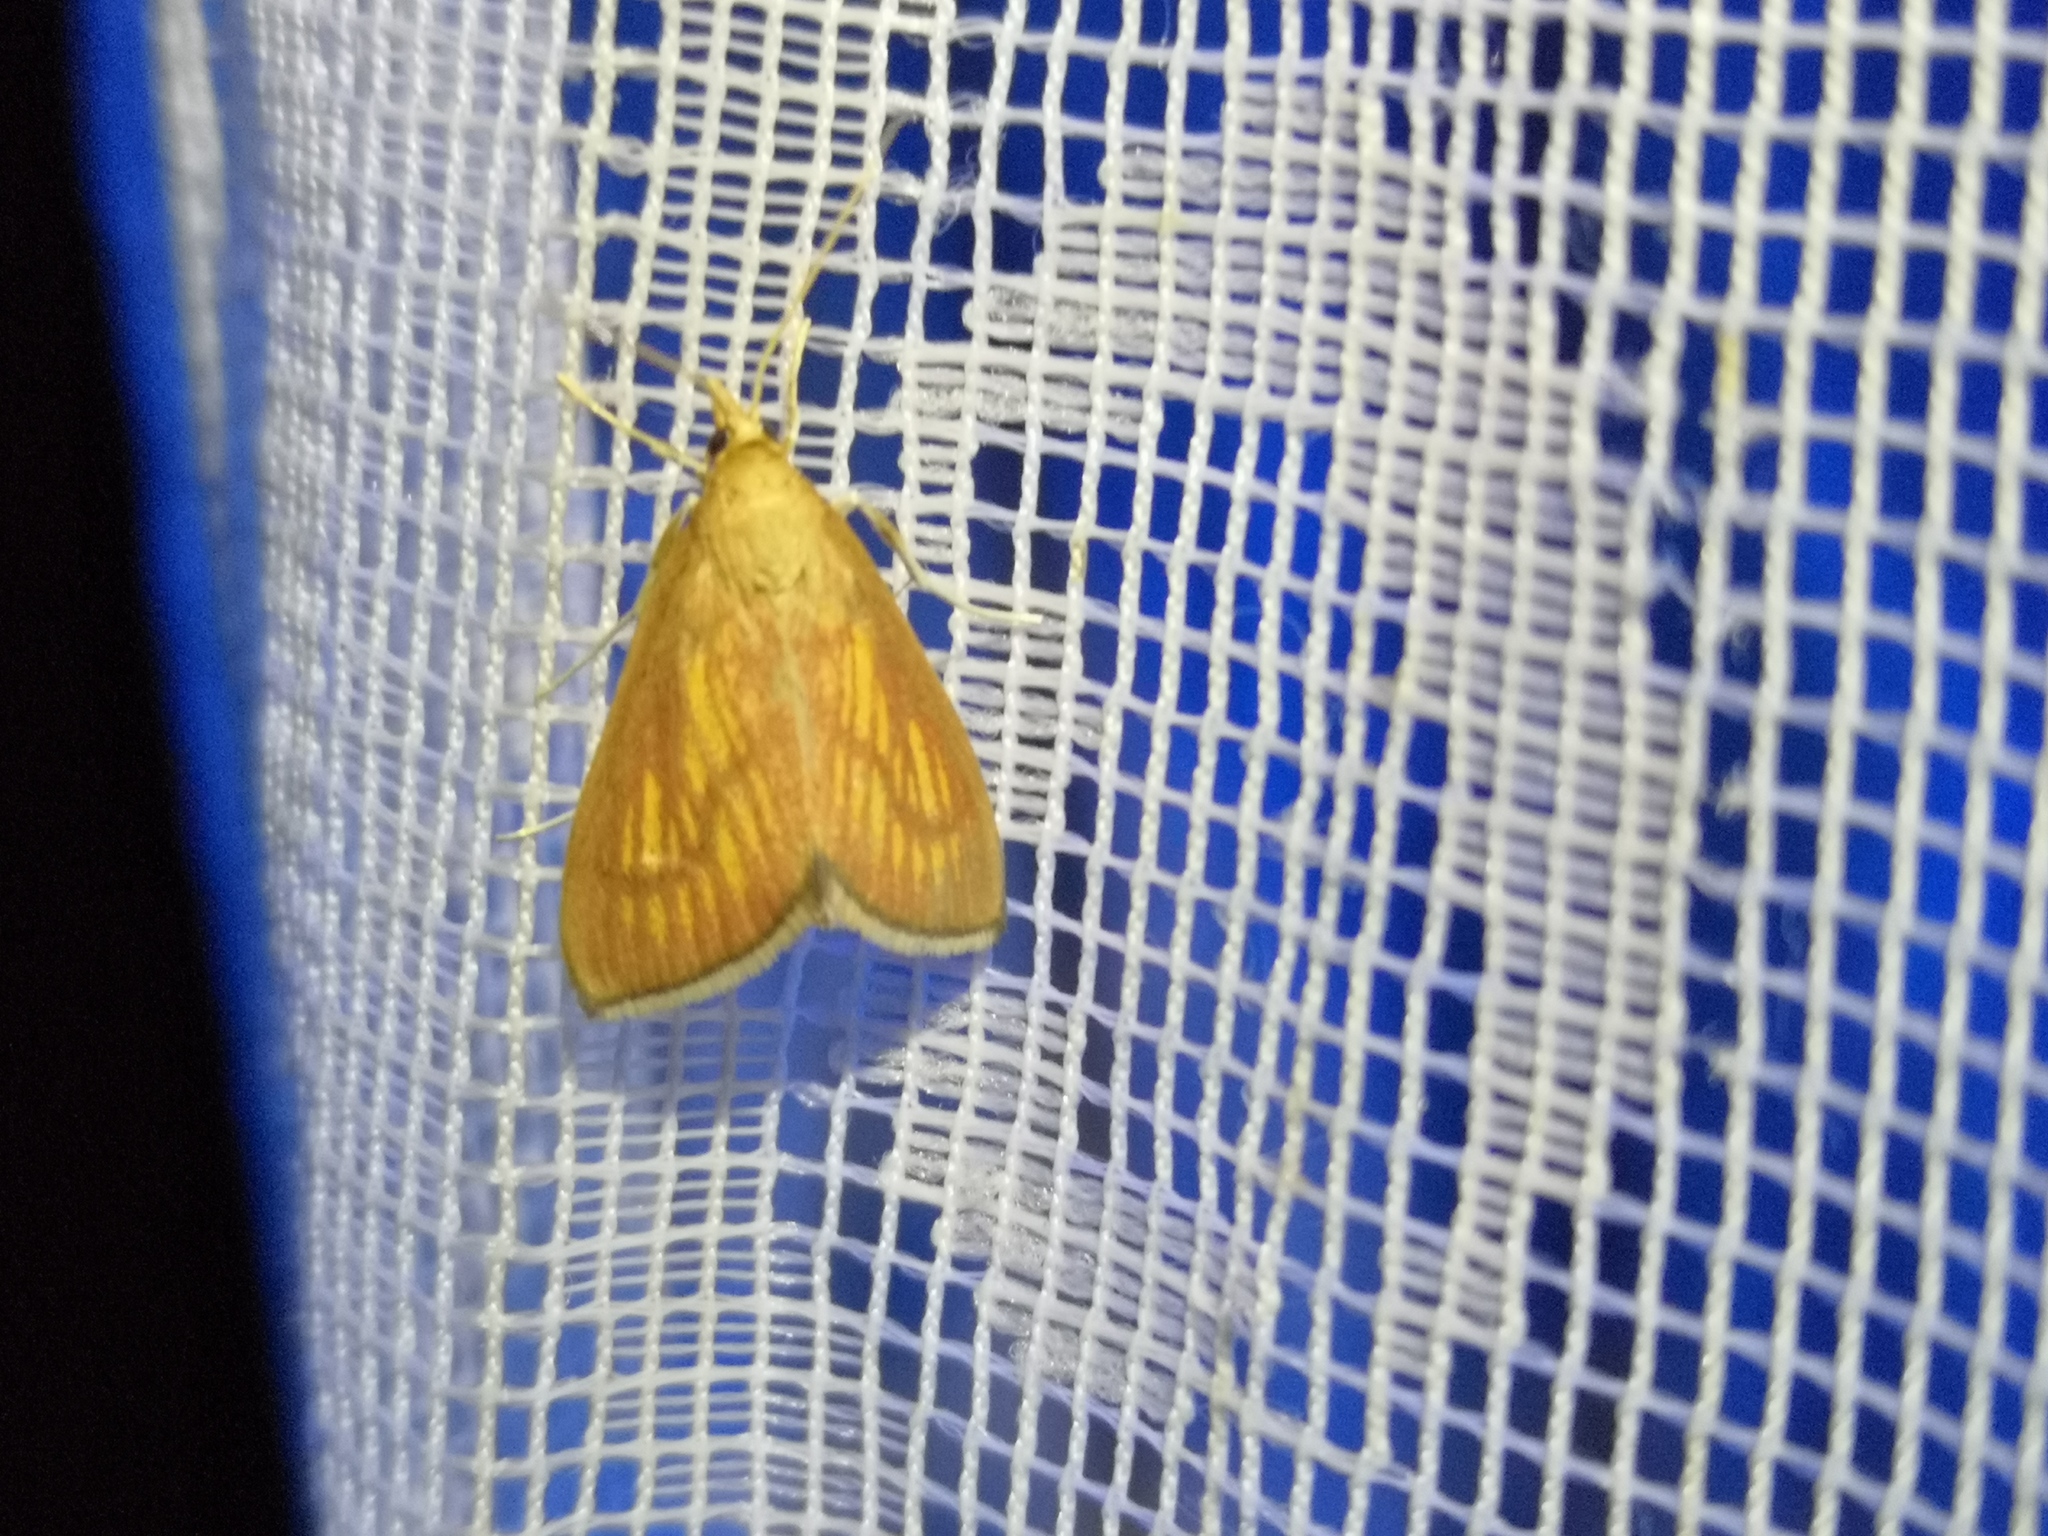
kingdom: Animalia
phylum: Arthropoda
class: Insecta
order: Lepidoptera
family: Crambidae
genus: Nascia
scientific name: Nascia cilialis
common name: Orange-rayed pearl
